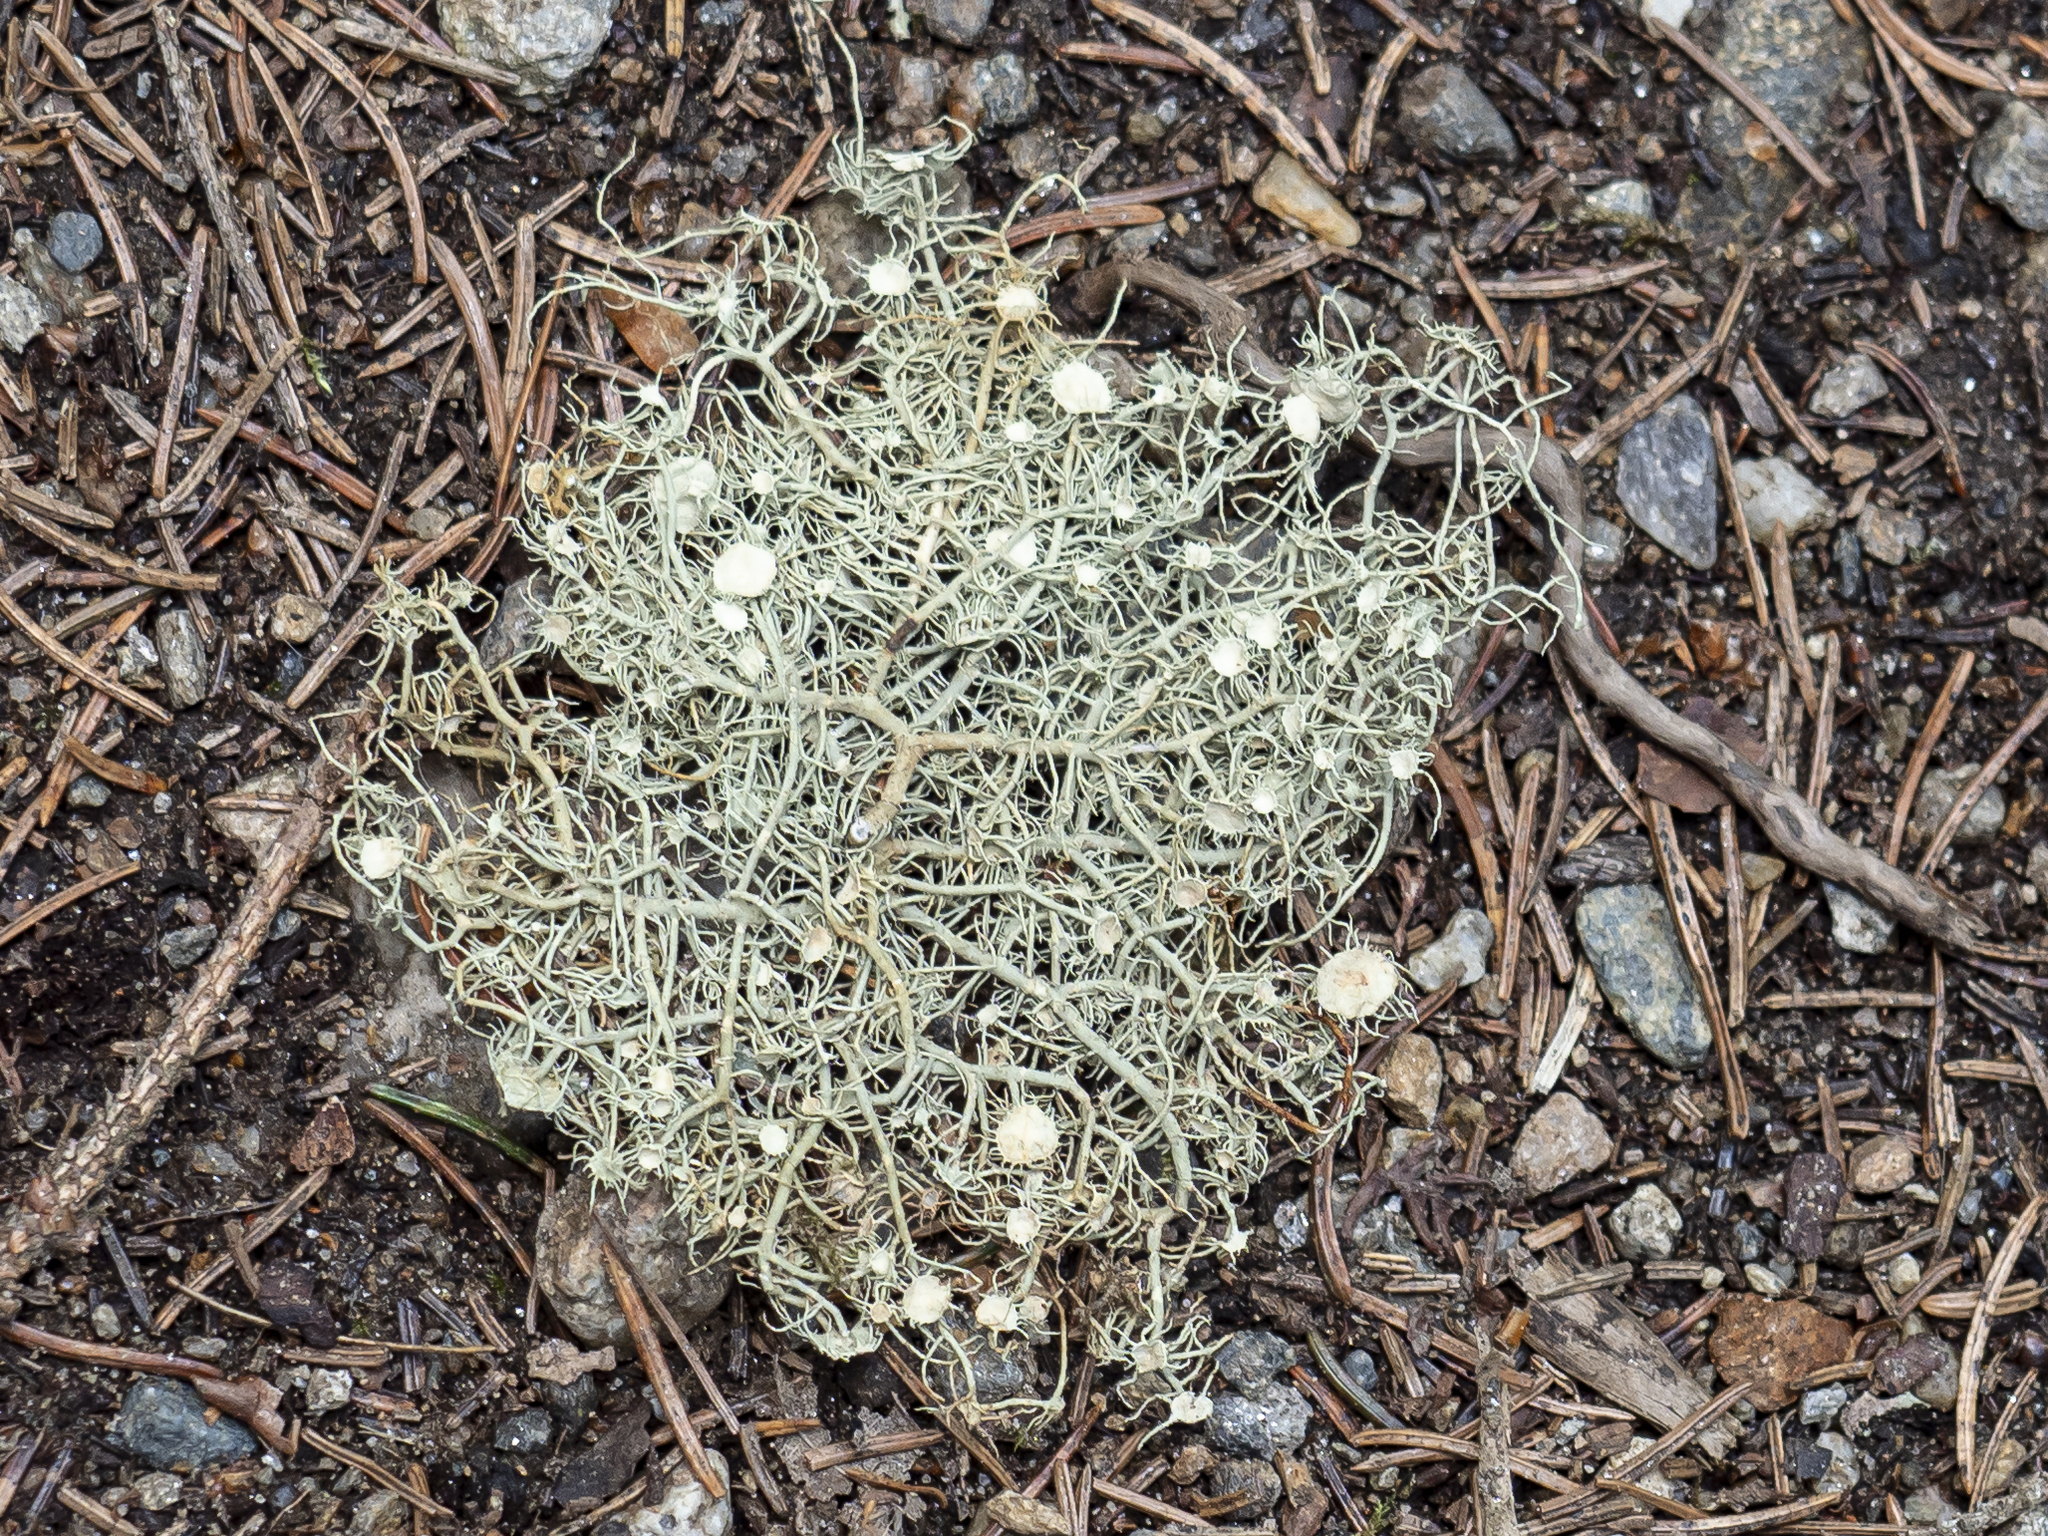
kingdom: Fungi
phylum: Ascomycota
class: Lecanoromycetes
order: Lecanorales
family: Parmeliaceae
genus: Usnea
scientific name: Usnea intermedia
